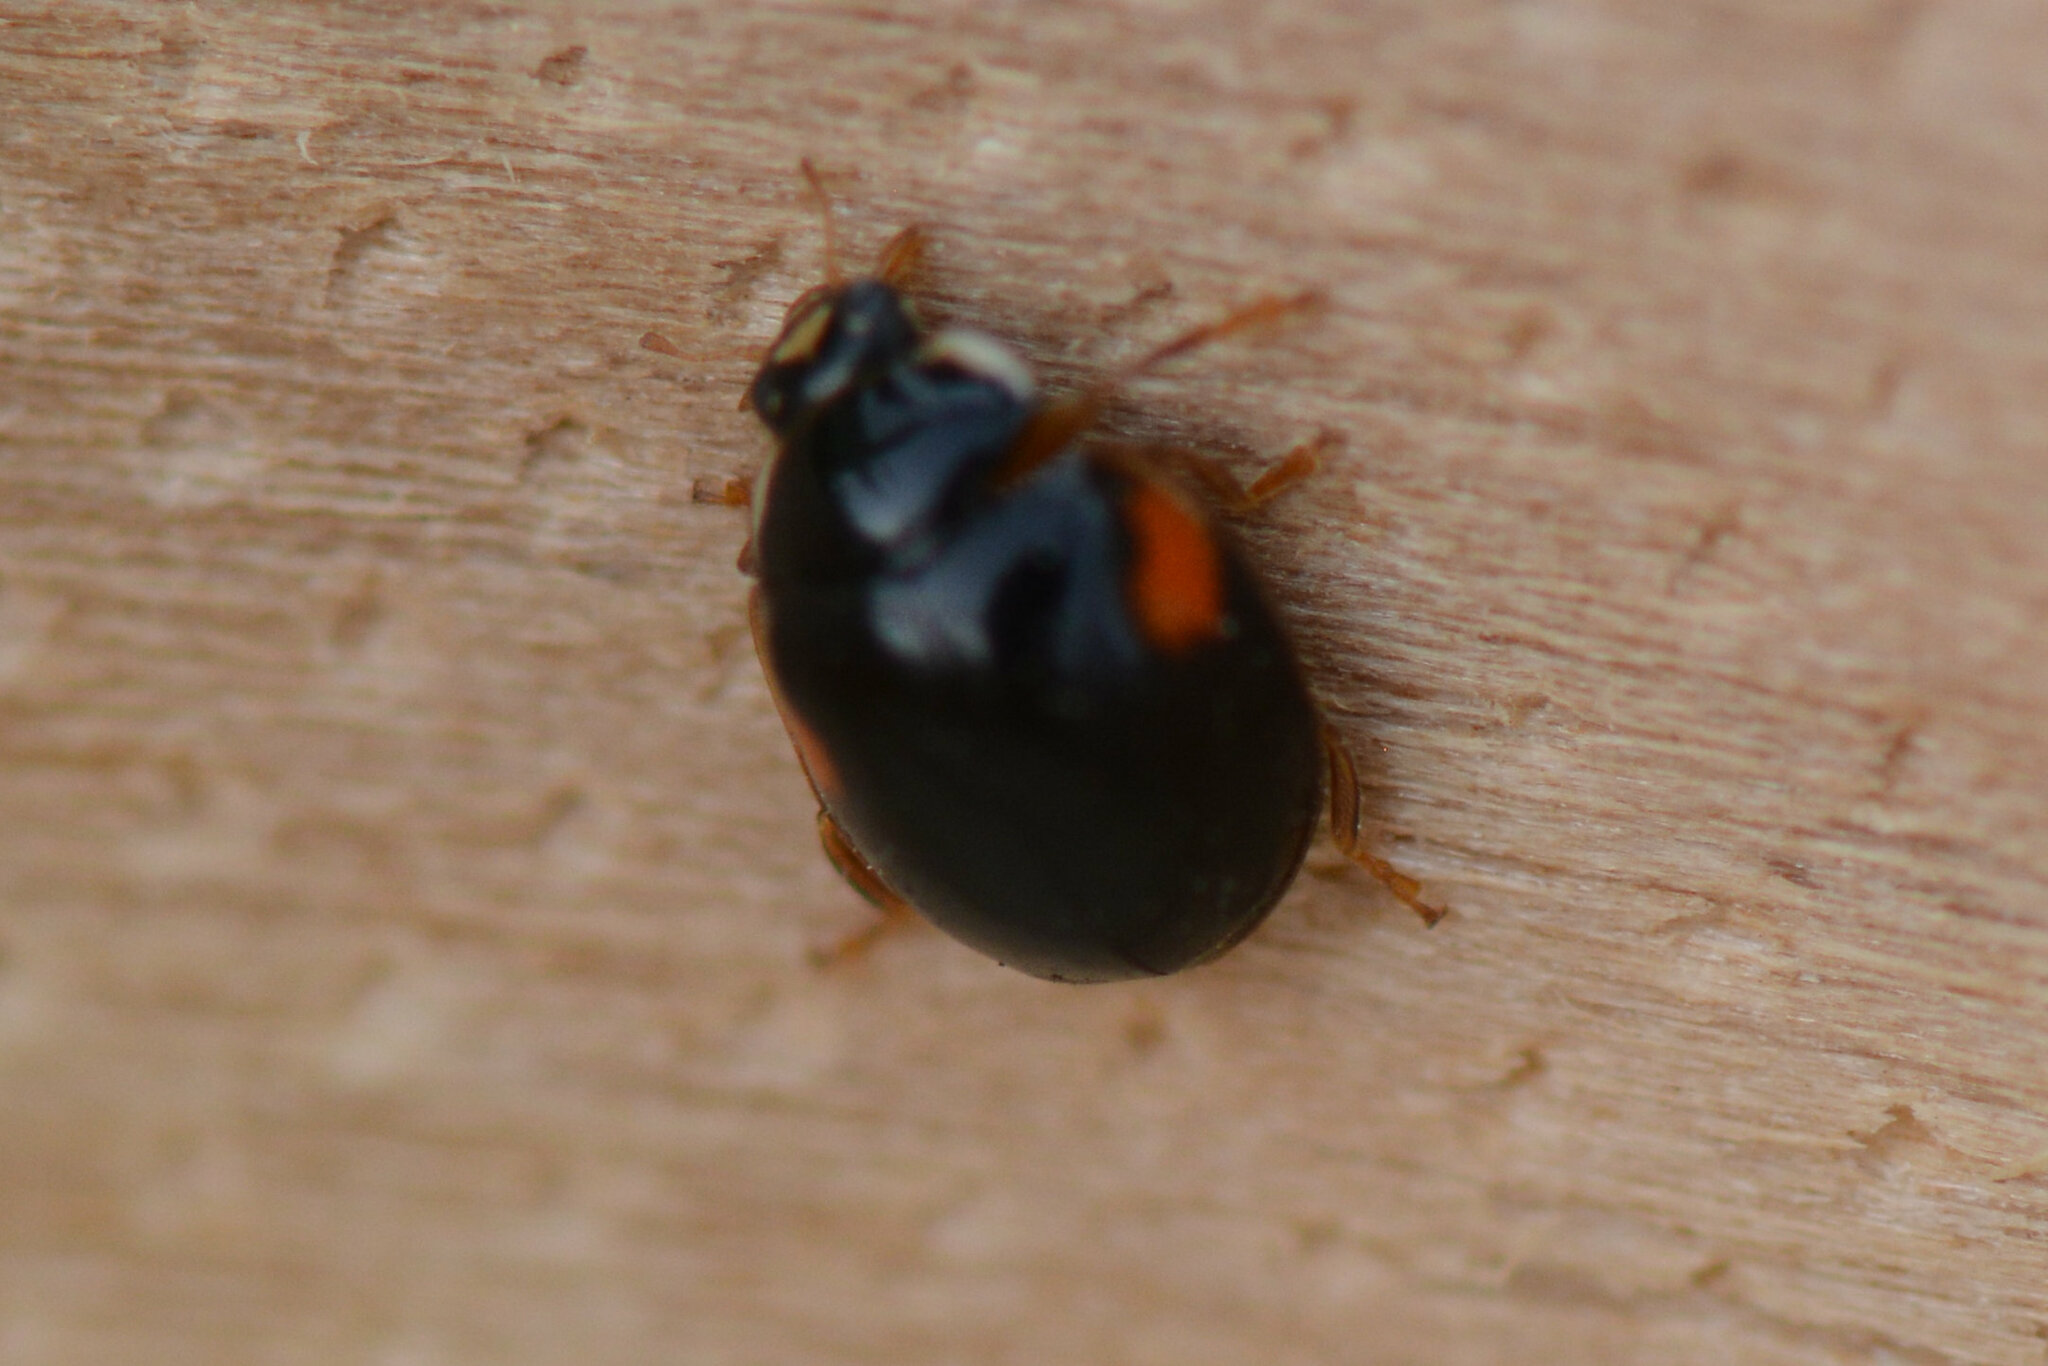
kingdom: Animalia
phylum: Arthropoda
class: Insecta
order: Coleoptera
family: Coccinellidae
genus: Adalia
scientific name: Adalia decempunctata
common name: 10-spot ladybird
